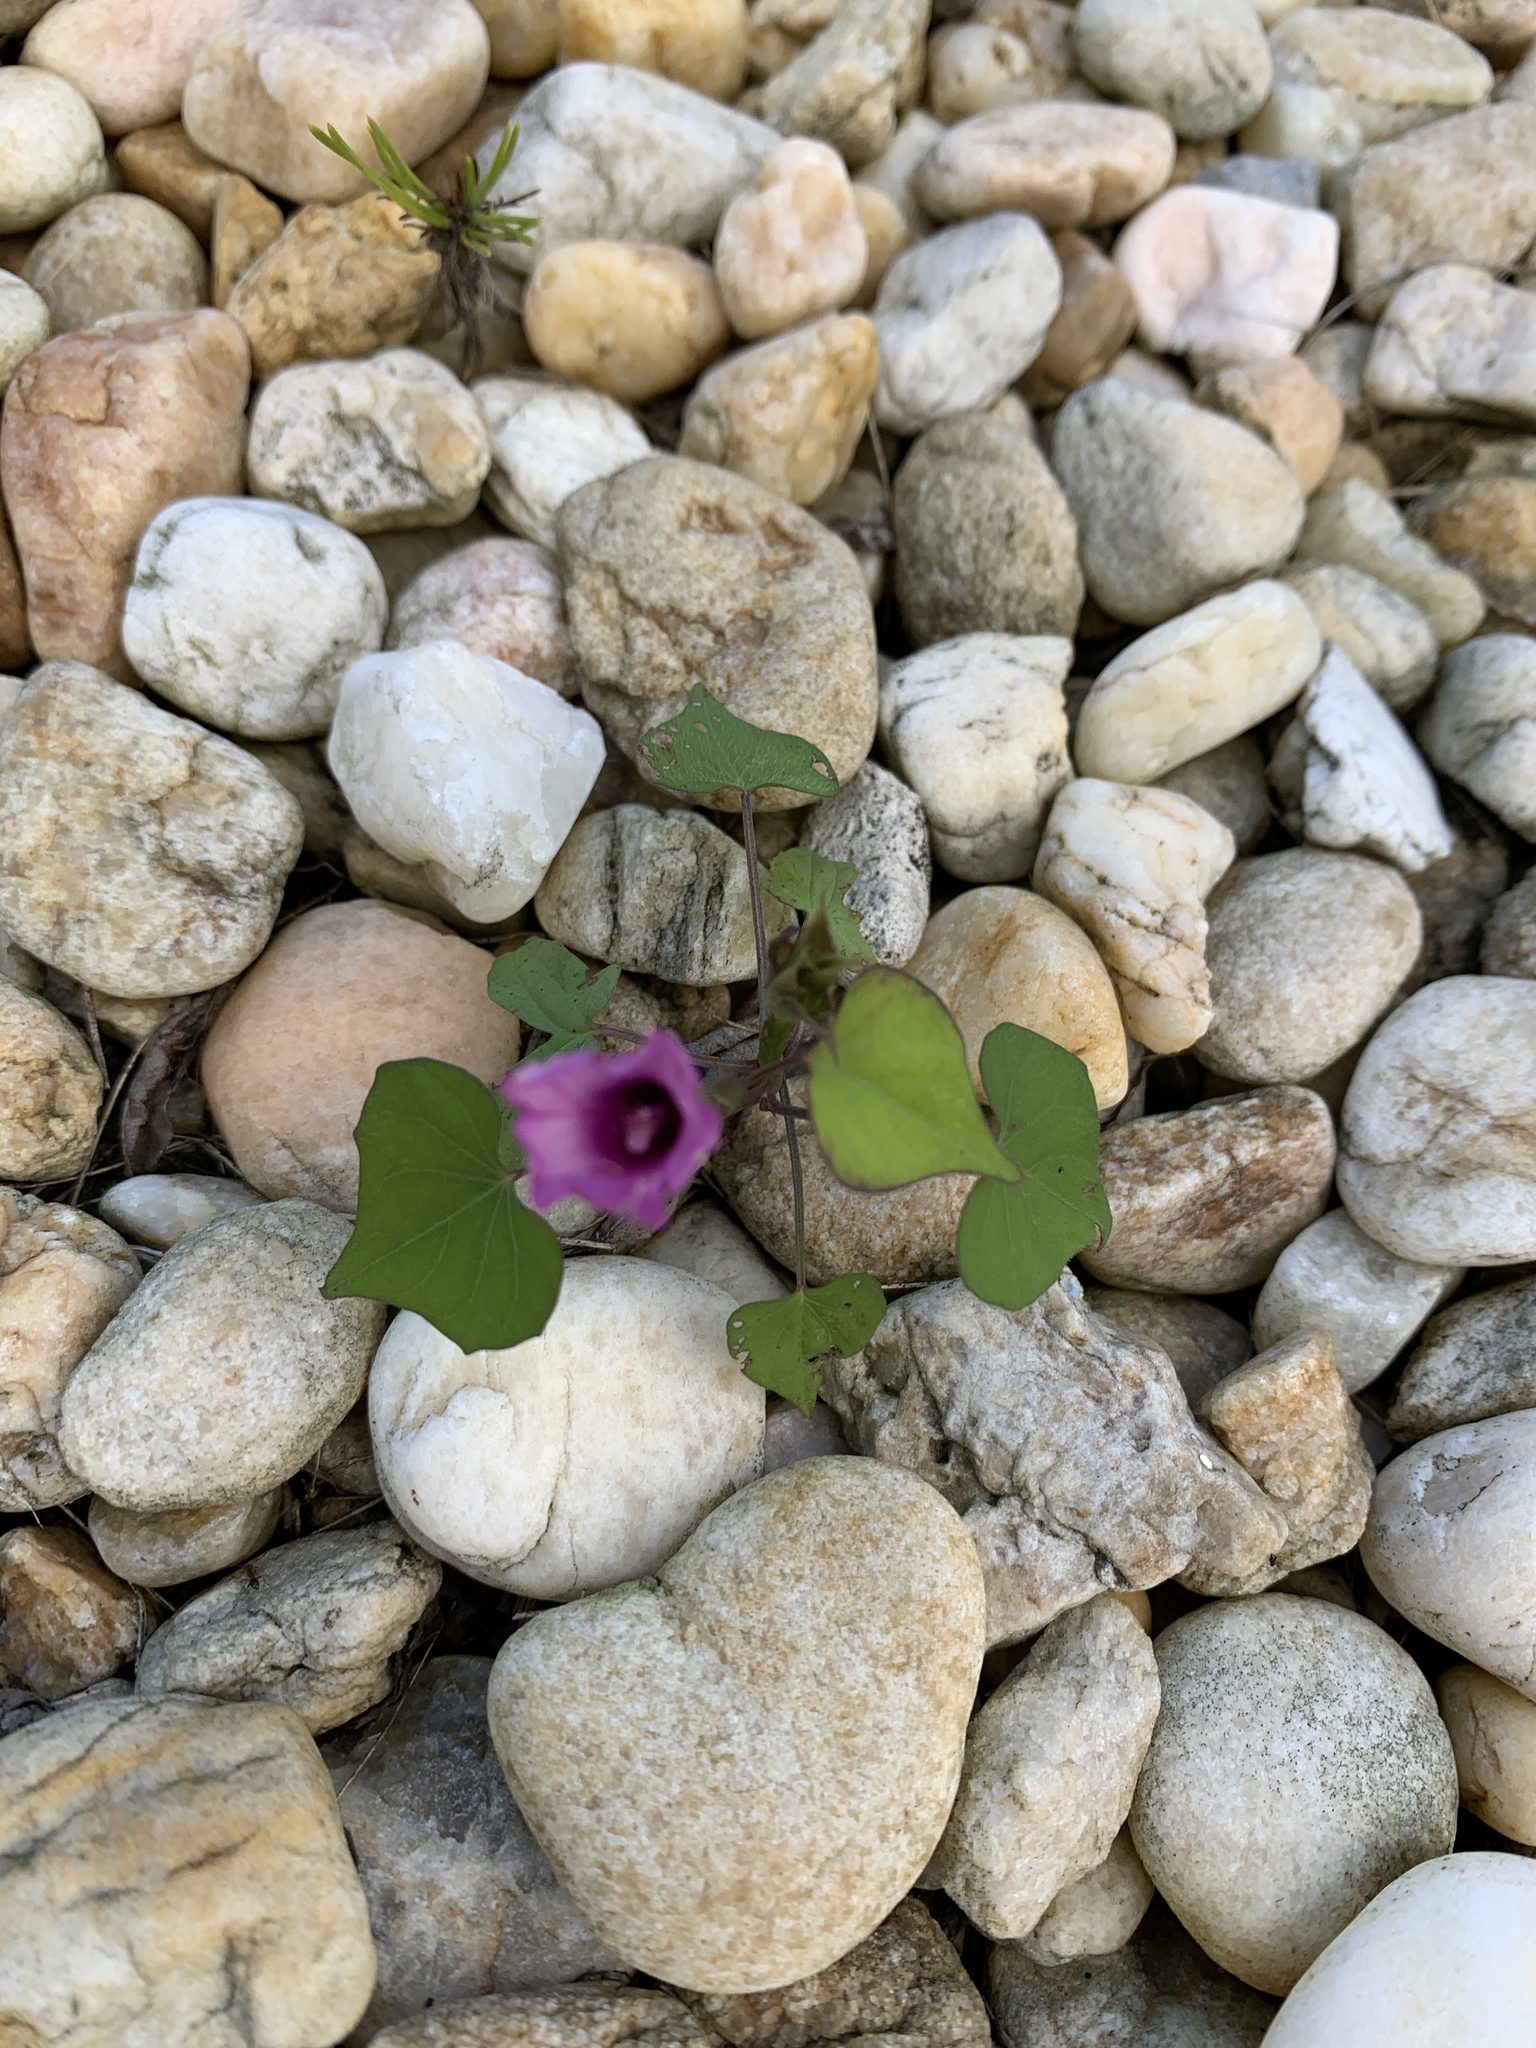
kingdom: Plantae
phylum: Tracheophyta
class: Magnoliopsida
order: Solanales
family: Convolvulaceae
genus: Ipomoea
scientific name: Ipomoea triloba
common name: Little-bell
